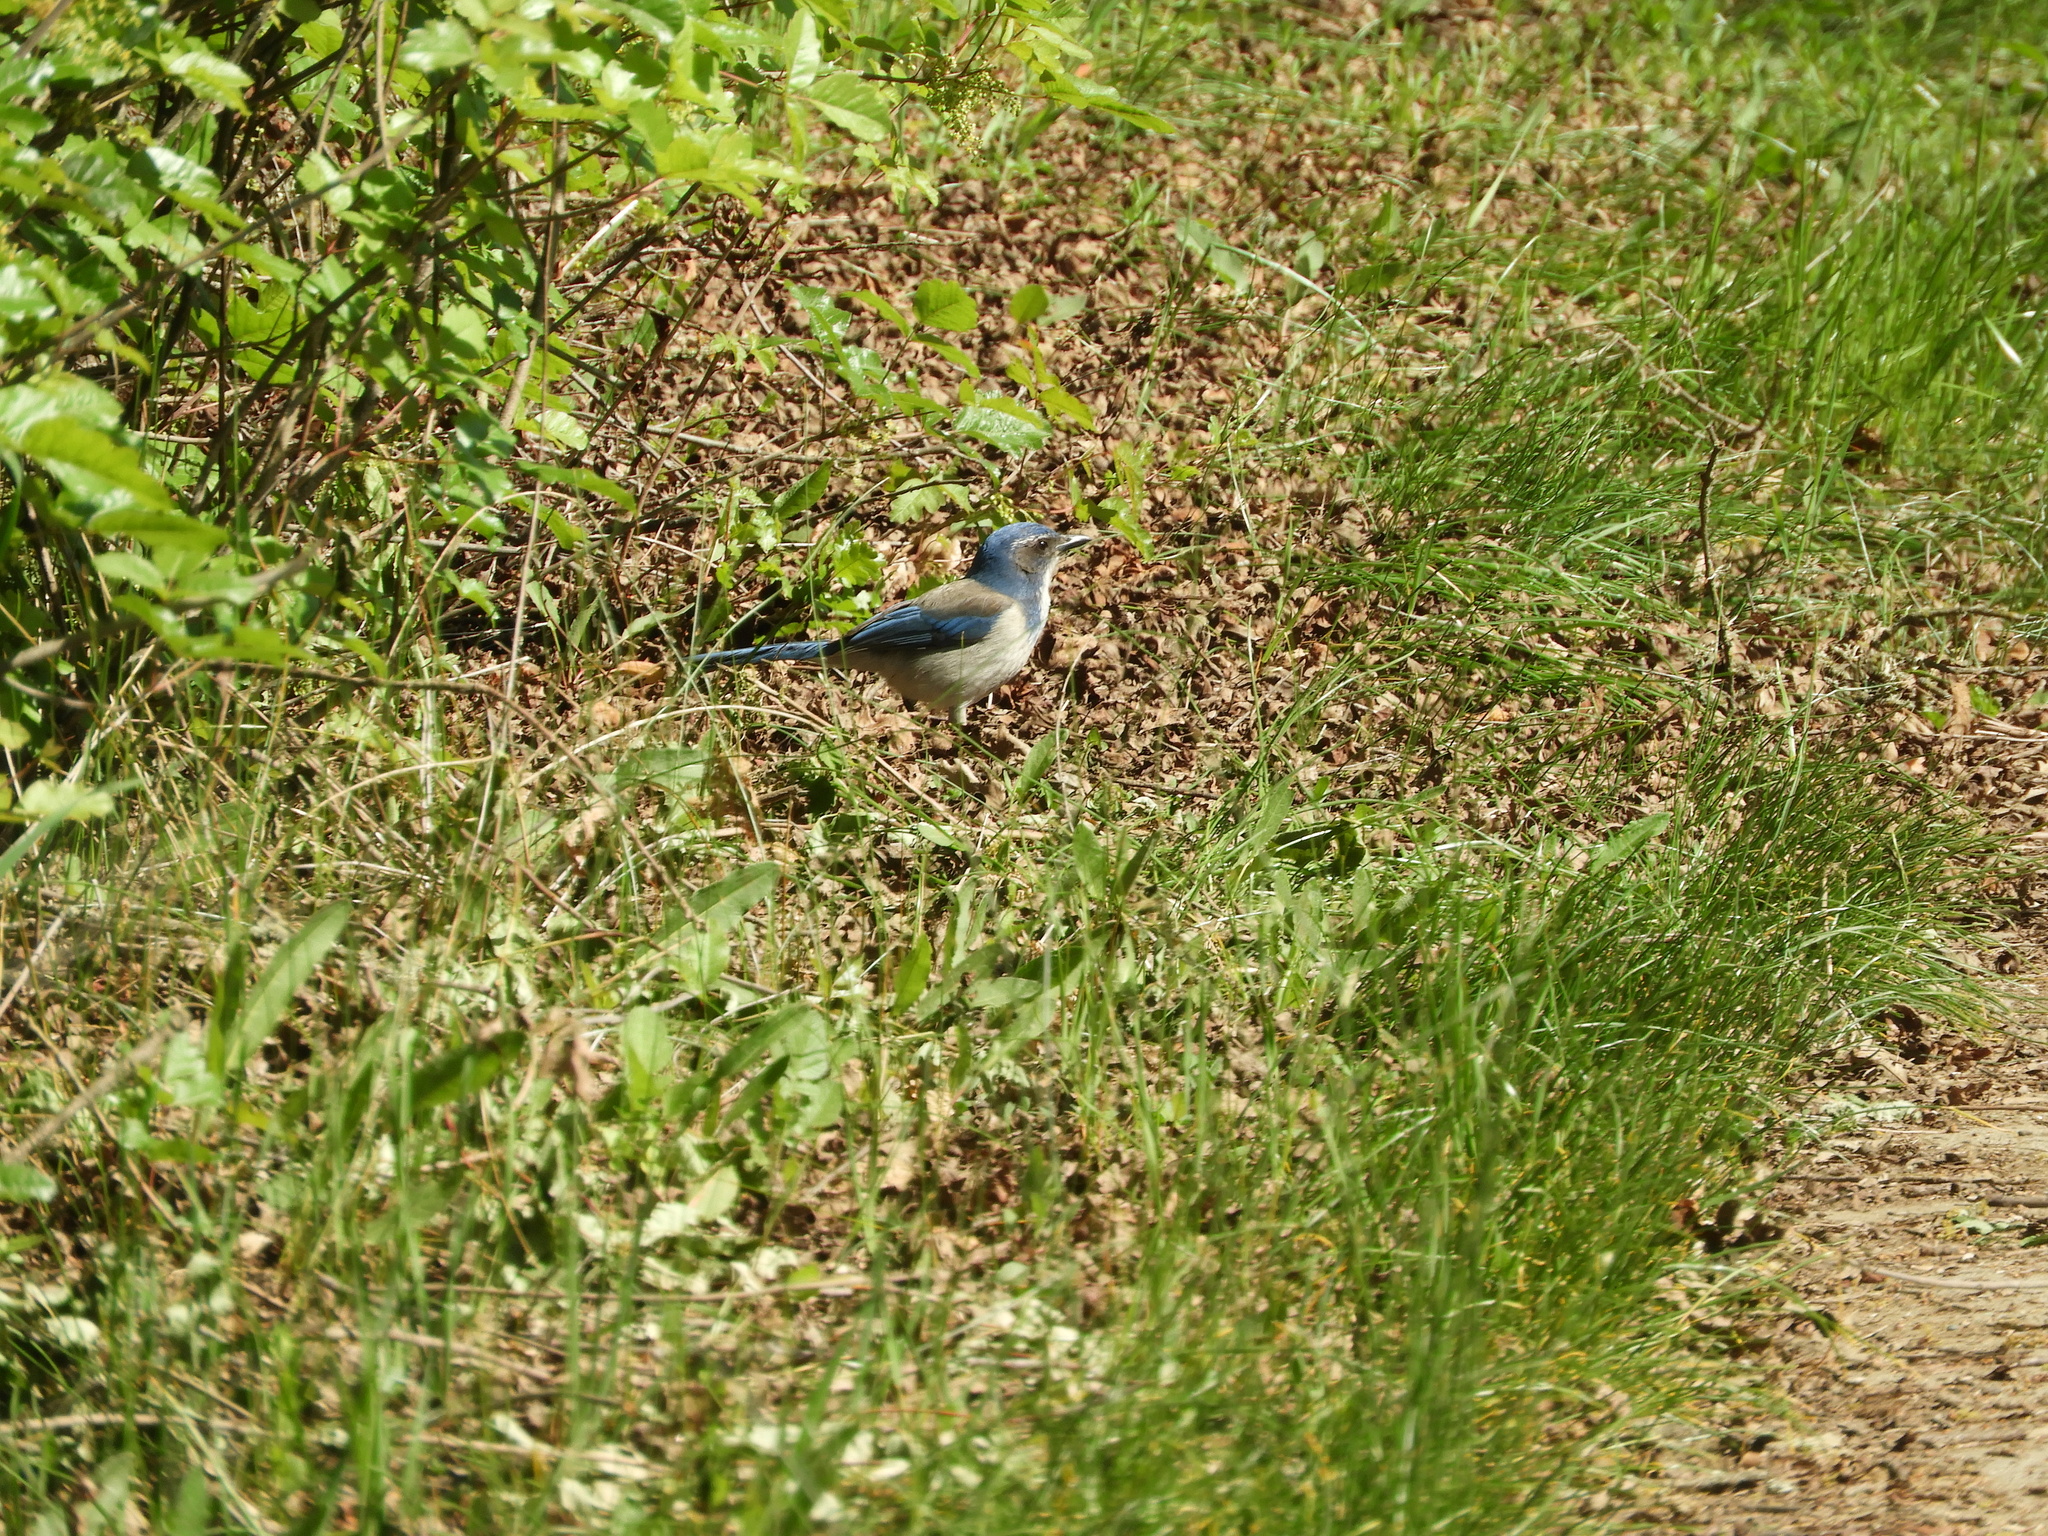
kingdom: Animalia
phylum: Chordata
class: Aves
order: Passeriformes
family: Corvidae
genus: Aphelocoma
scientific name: Aphelocoma californica
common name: California scrub-jay
